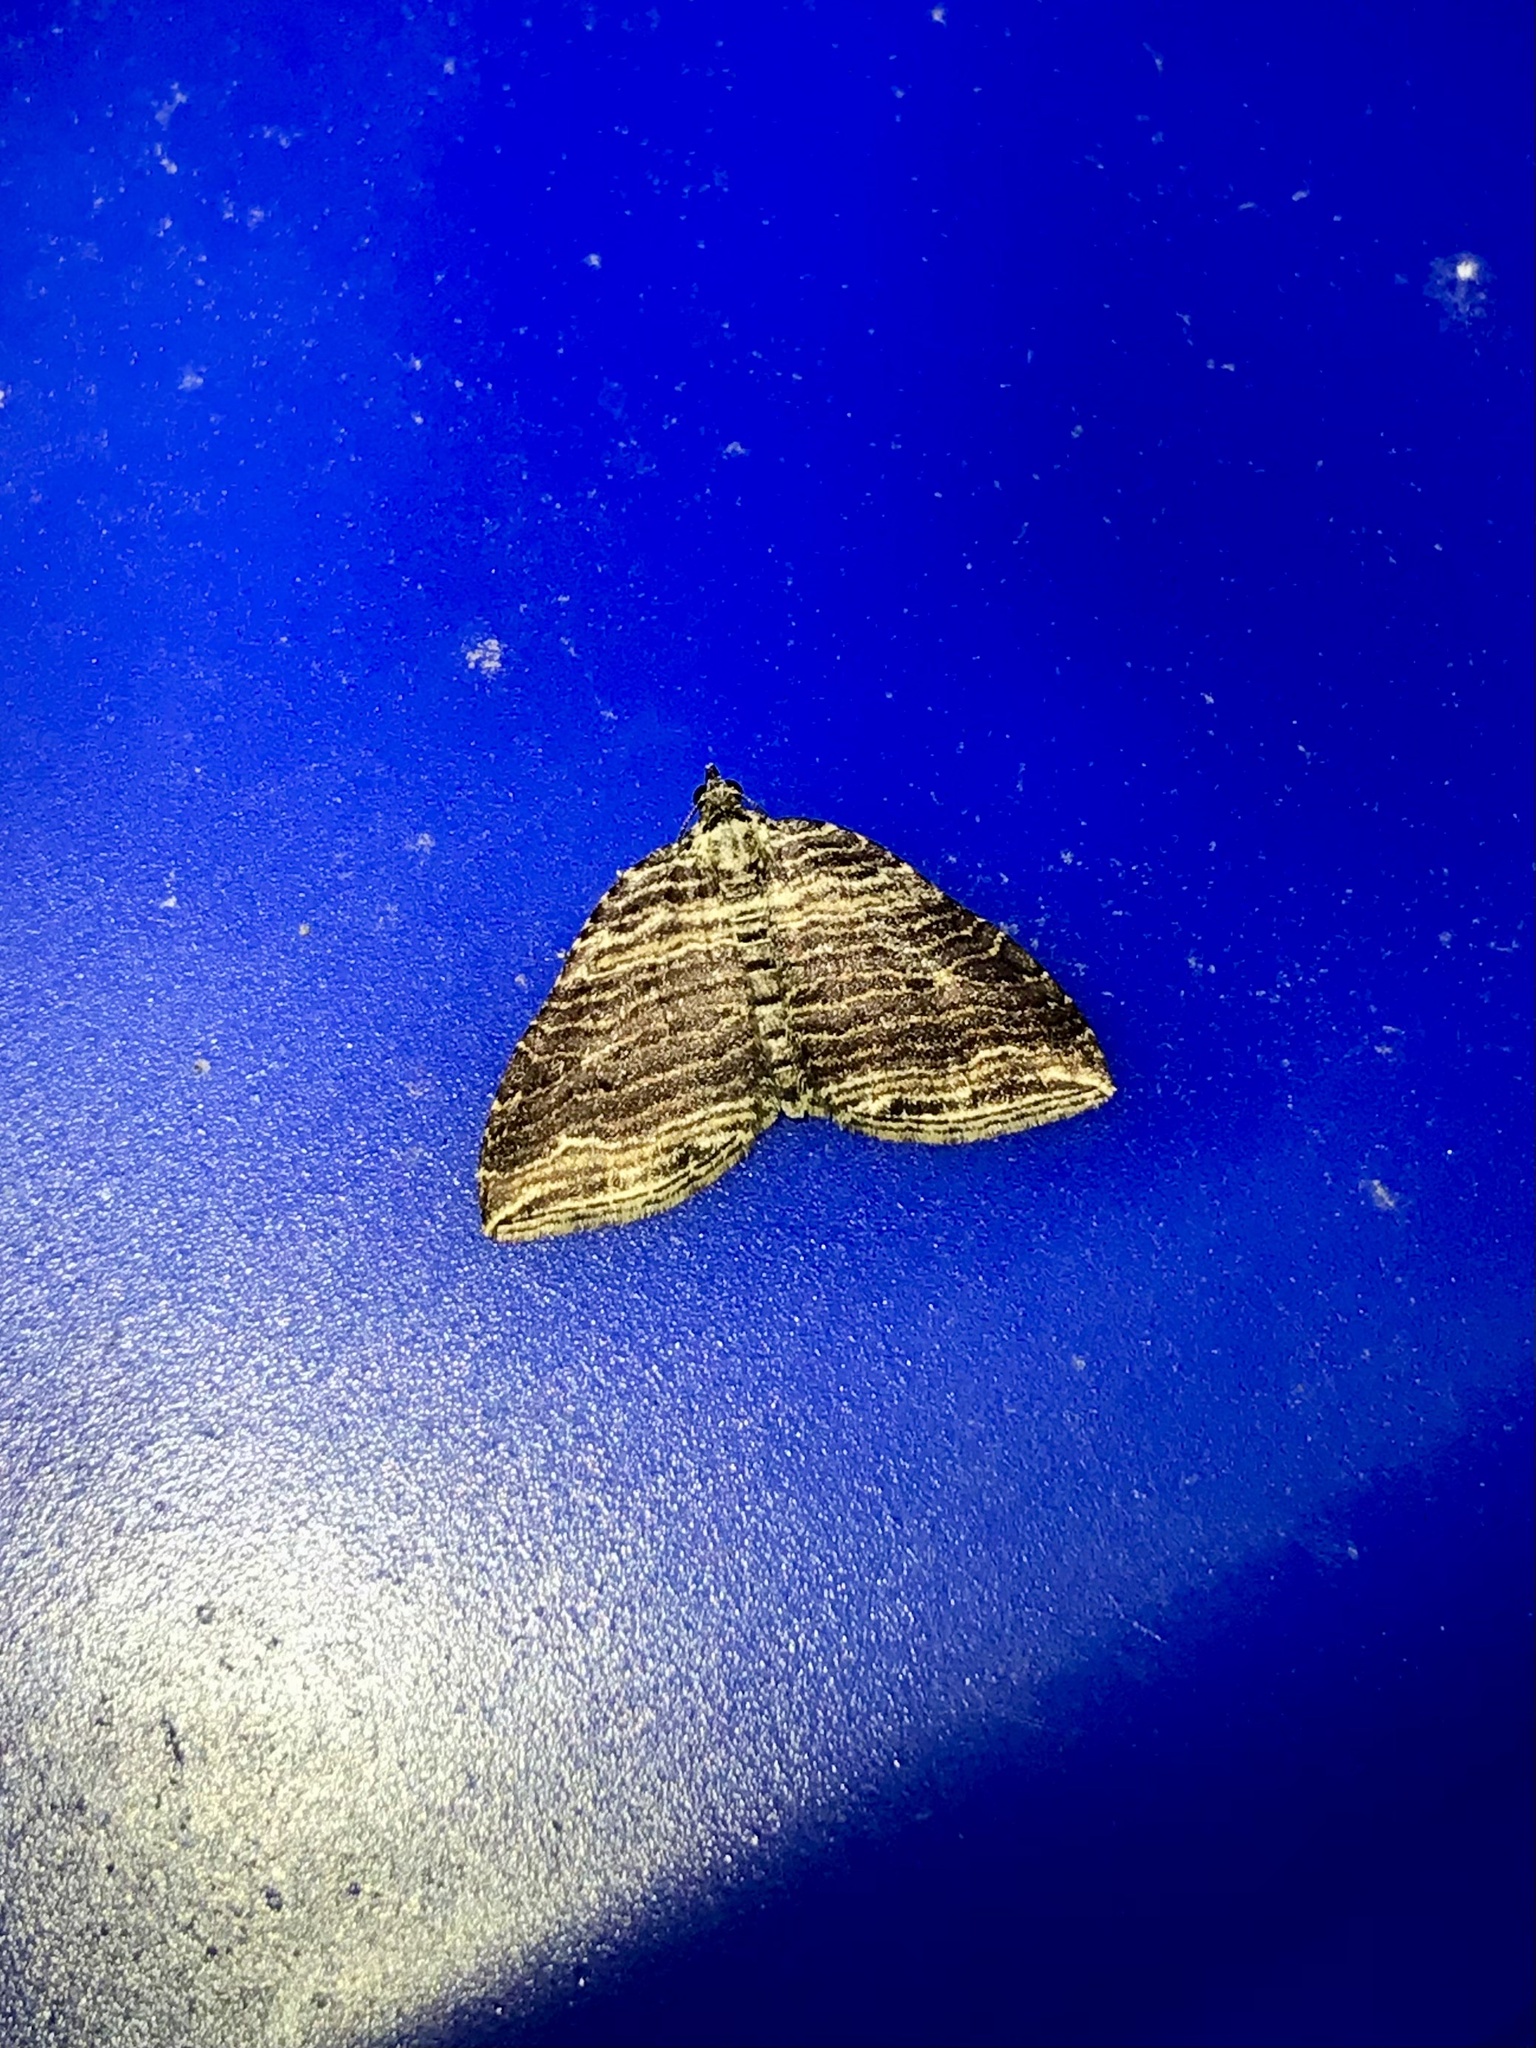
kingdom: Animalia
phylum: Arthropoda
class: Insecta
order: Lepidoptera
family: Geometridae
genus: Anticlea
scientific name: Anticlea multiferata
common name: Many-lined carpet
